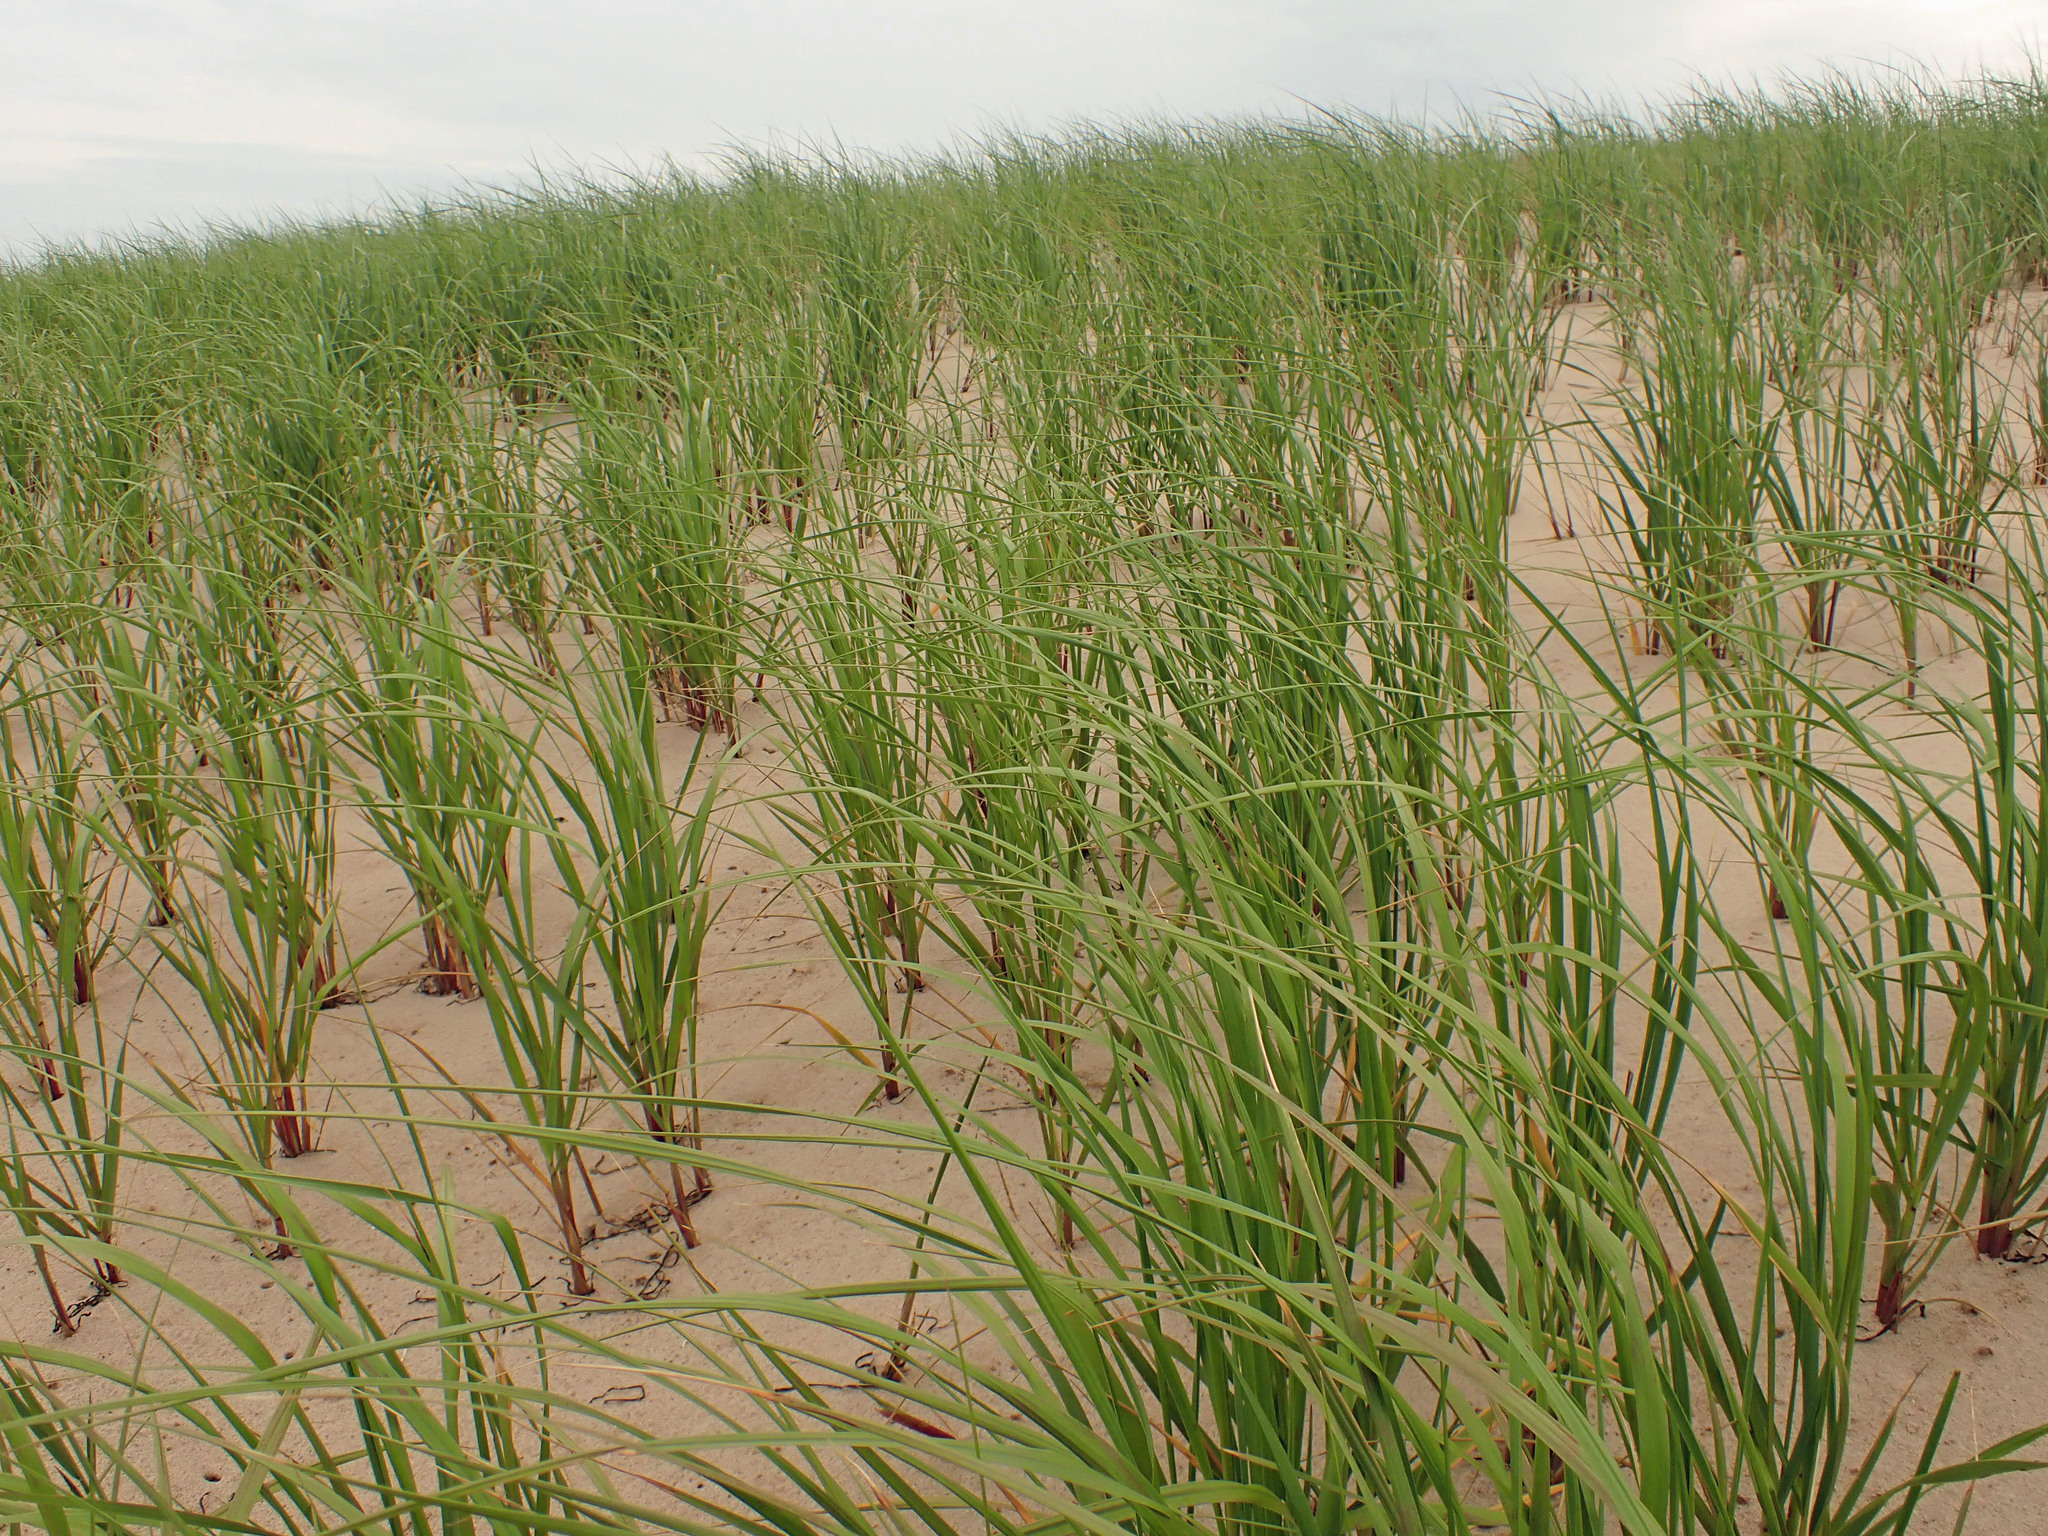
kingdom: Plantae
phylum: Tracheophyta
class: Liliopsida
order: Poales
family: Poaceae
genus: Calamagrostis
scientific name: Calamagrostis breviligulata
